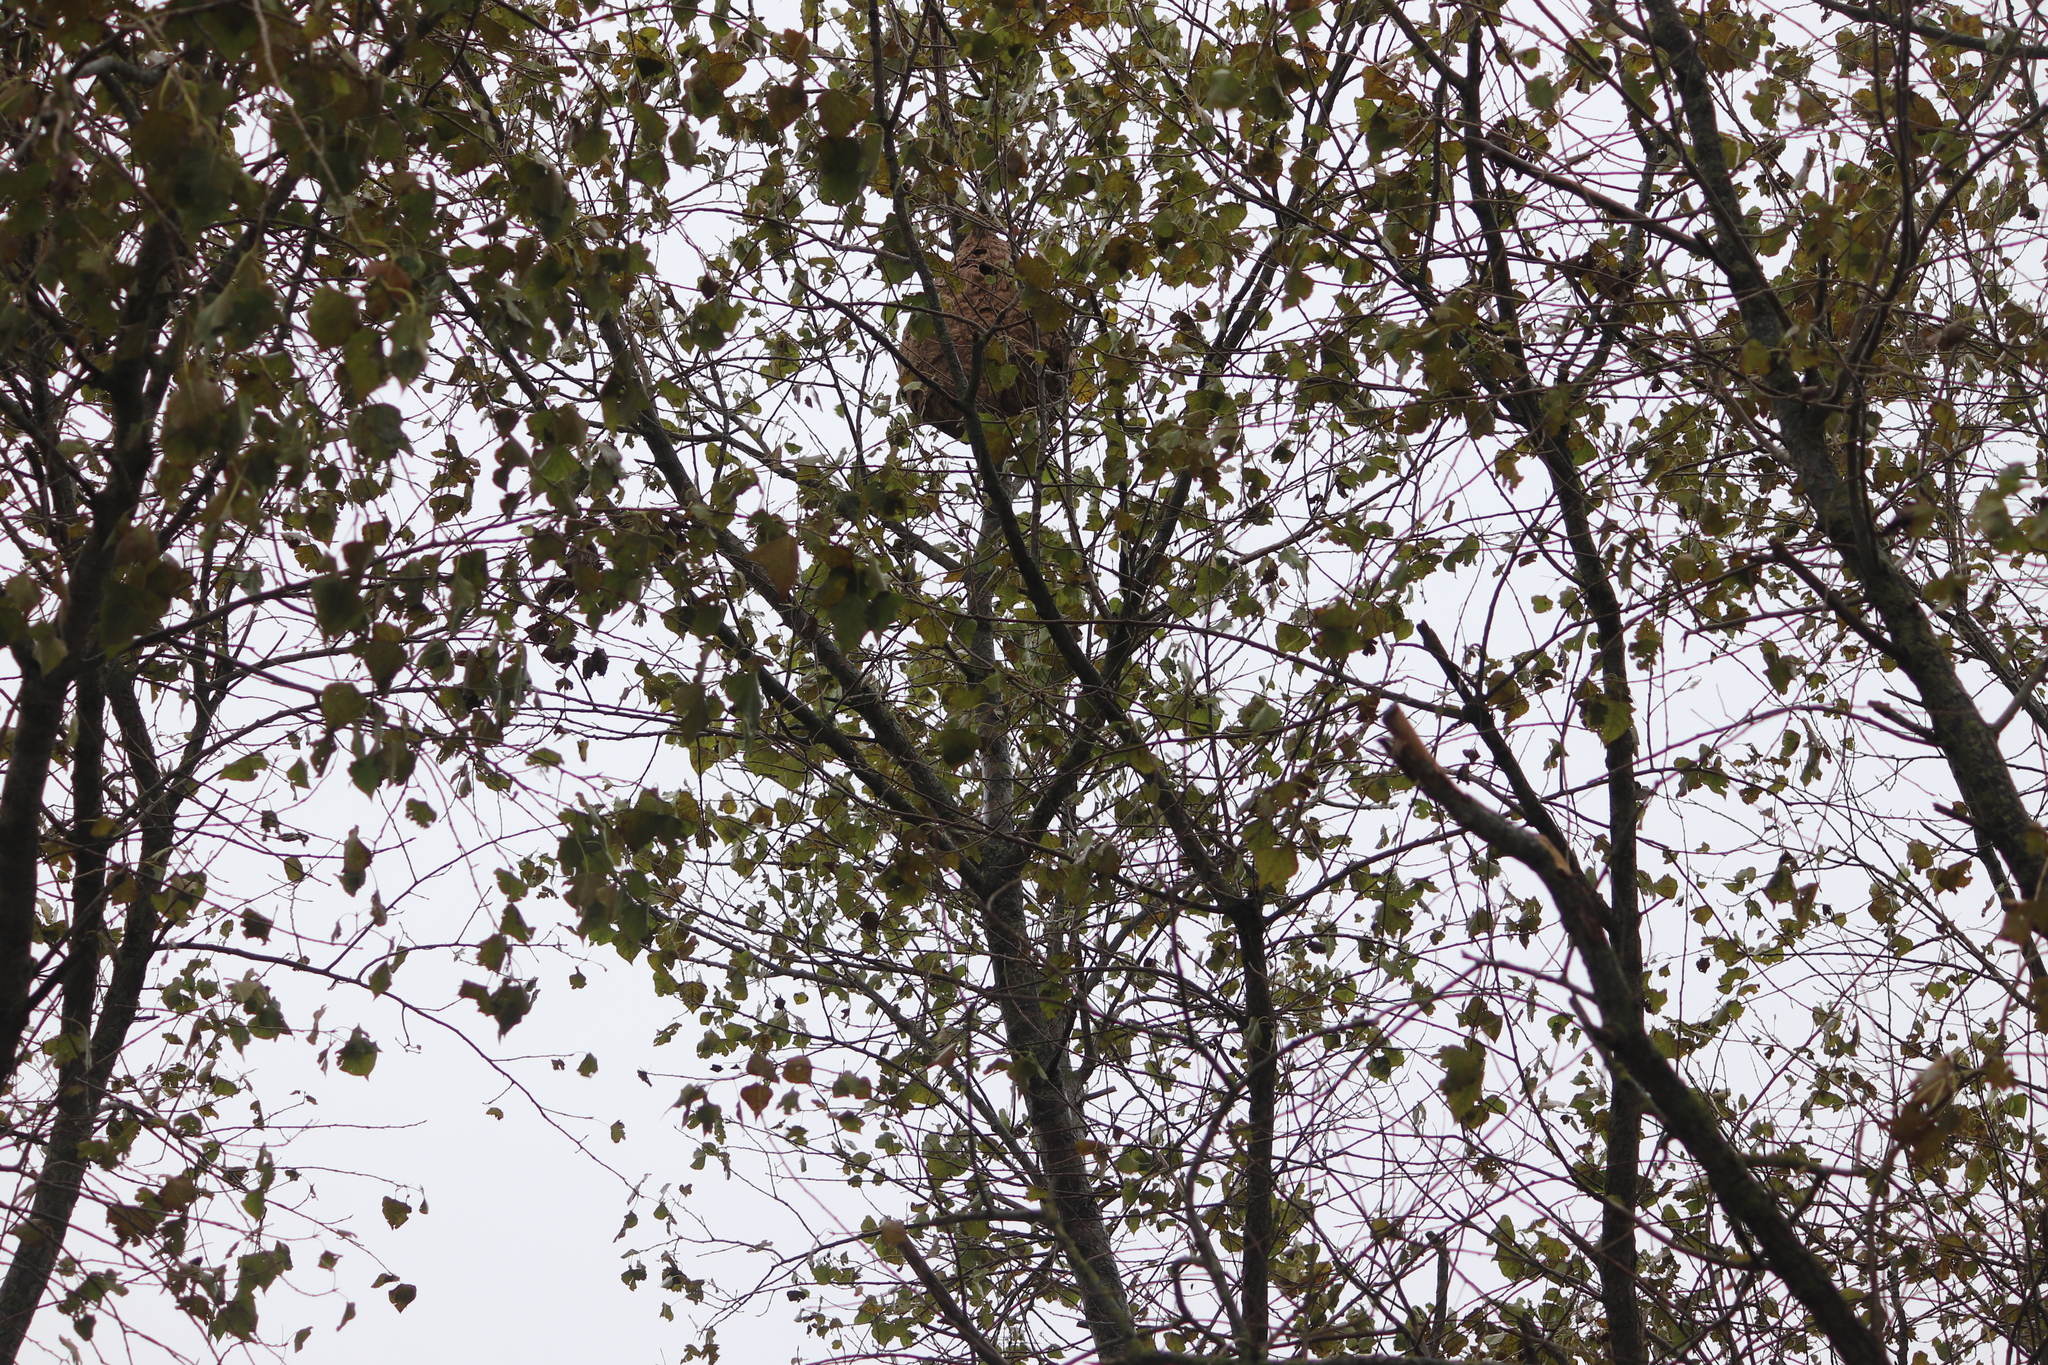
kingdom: Animalia
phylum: Arthropoda
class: Insecta
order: Hymenoptera
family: Vespidae
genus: Vespa
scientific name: Vespa velutina
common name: Asian hornet
